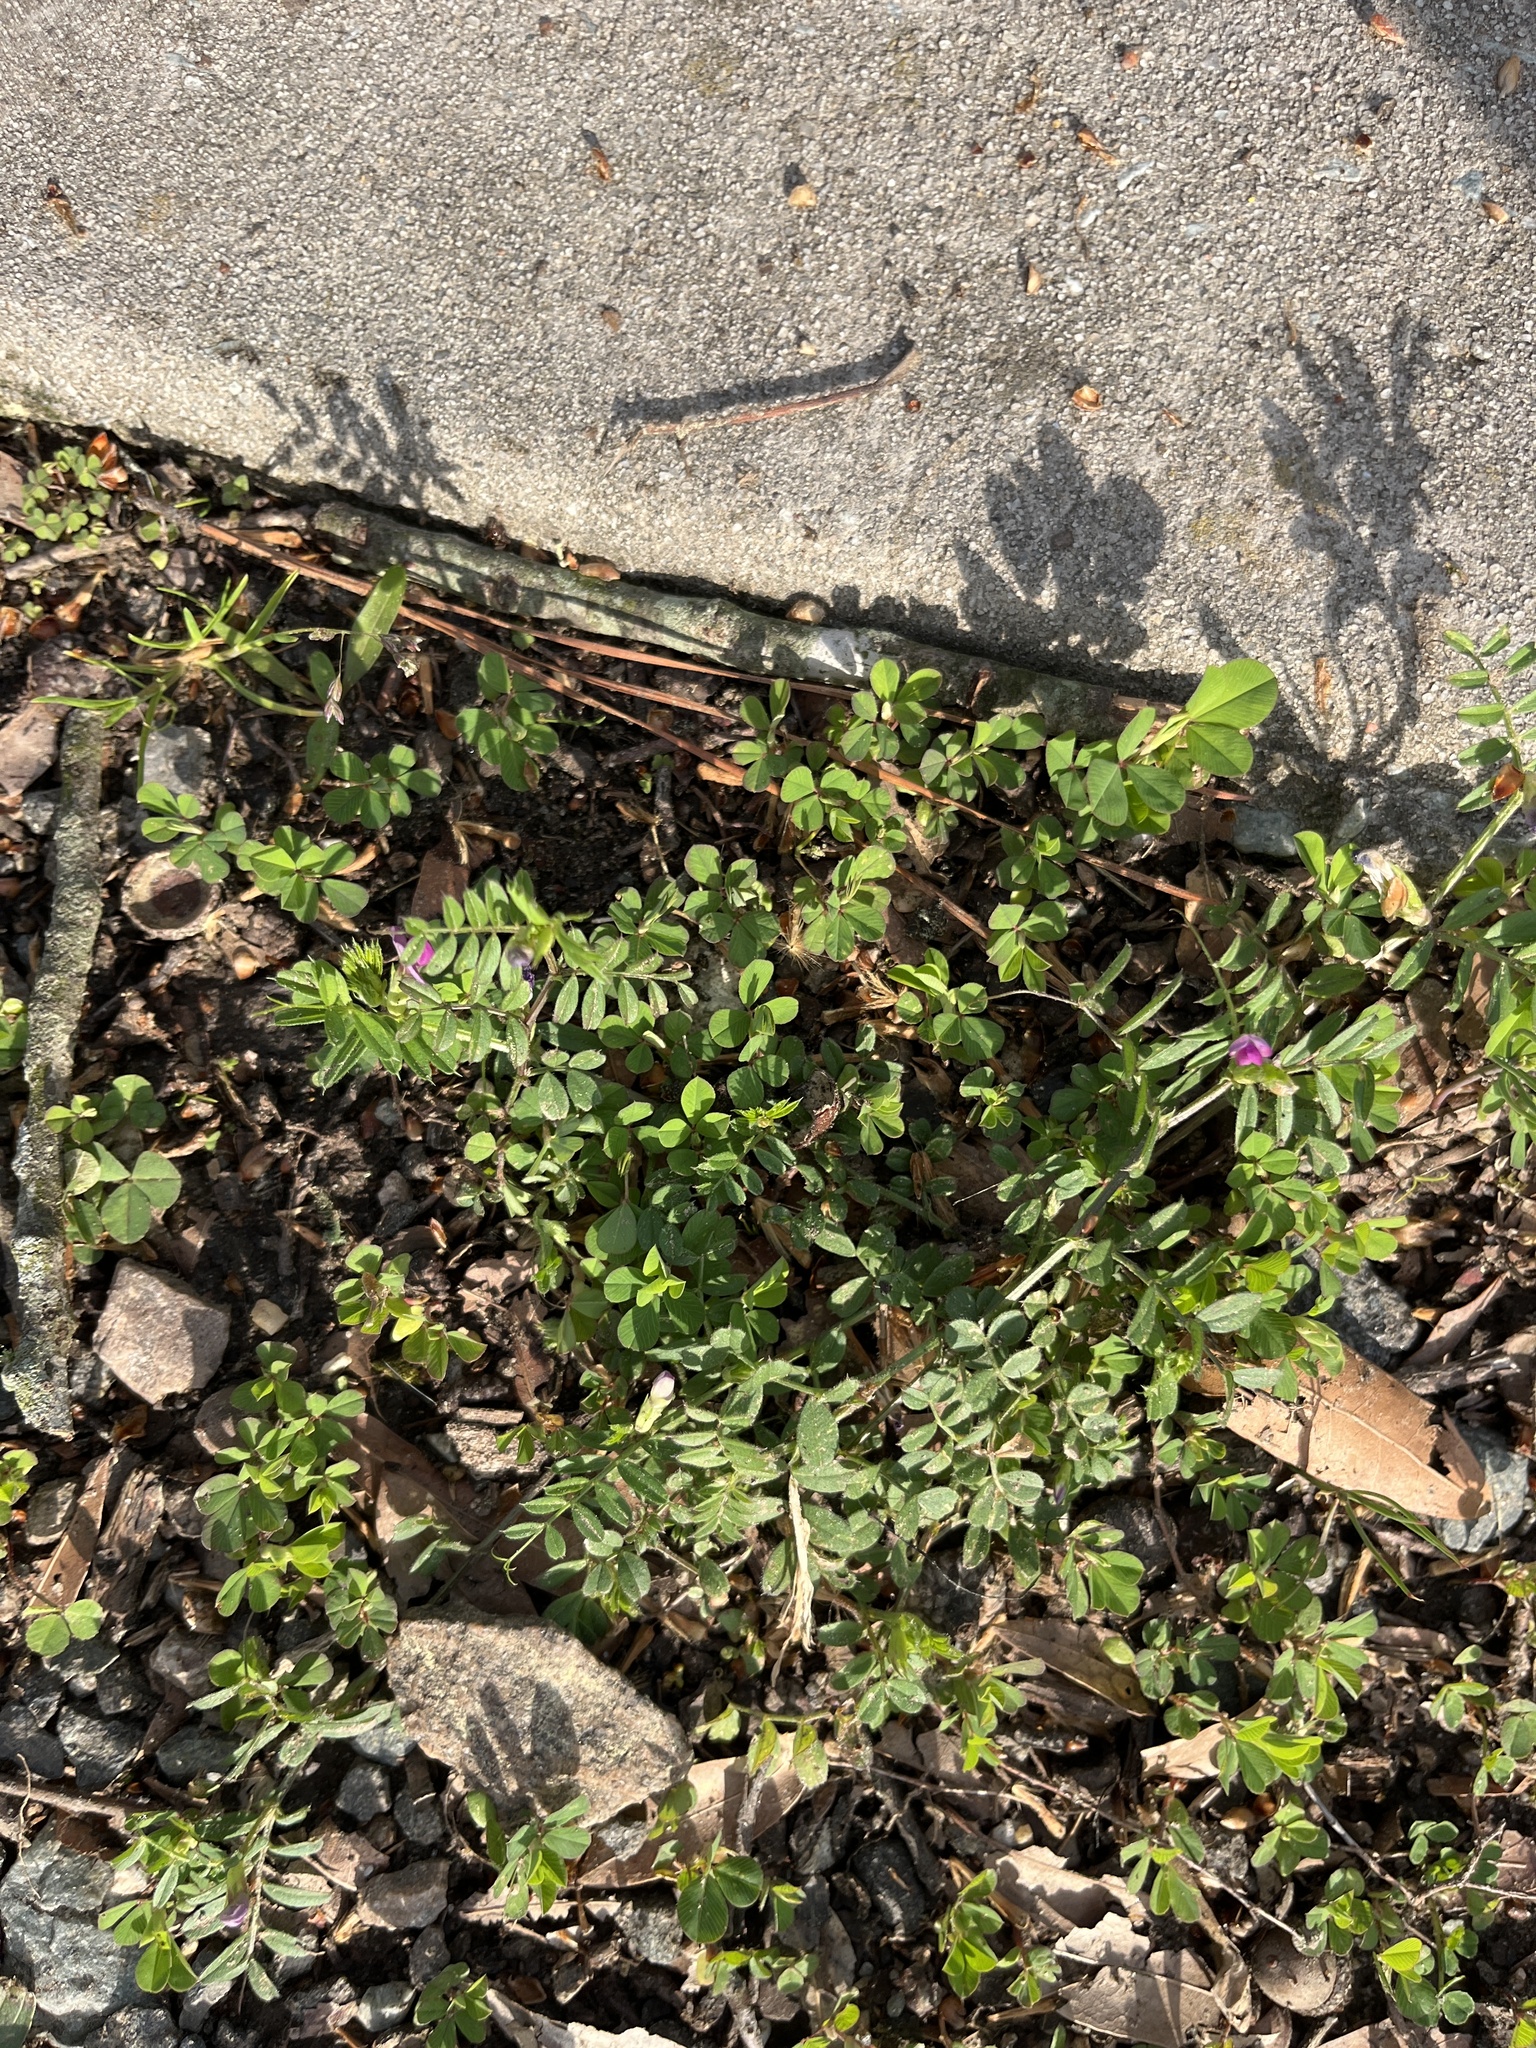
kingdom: Plantae
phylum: Tracheophyta
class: Magnoliopsida
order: Fabales
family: Fabaceae
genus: Vicia
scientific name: Vicia sativa
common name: Garden vetch
